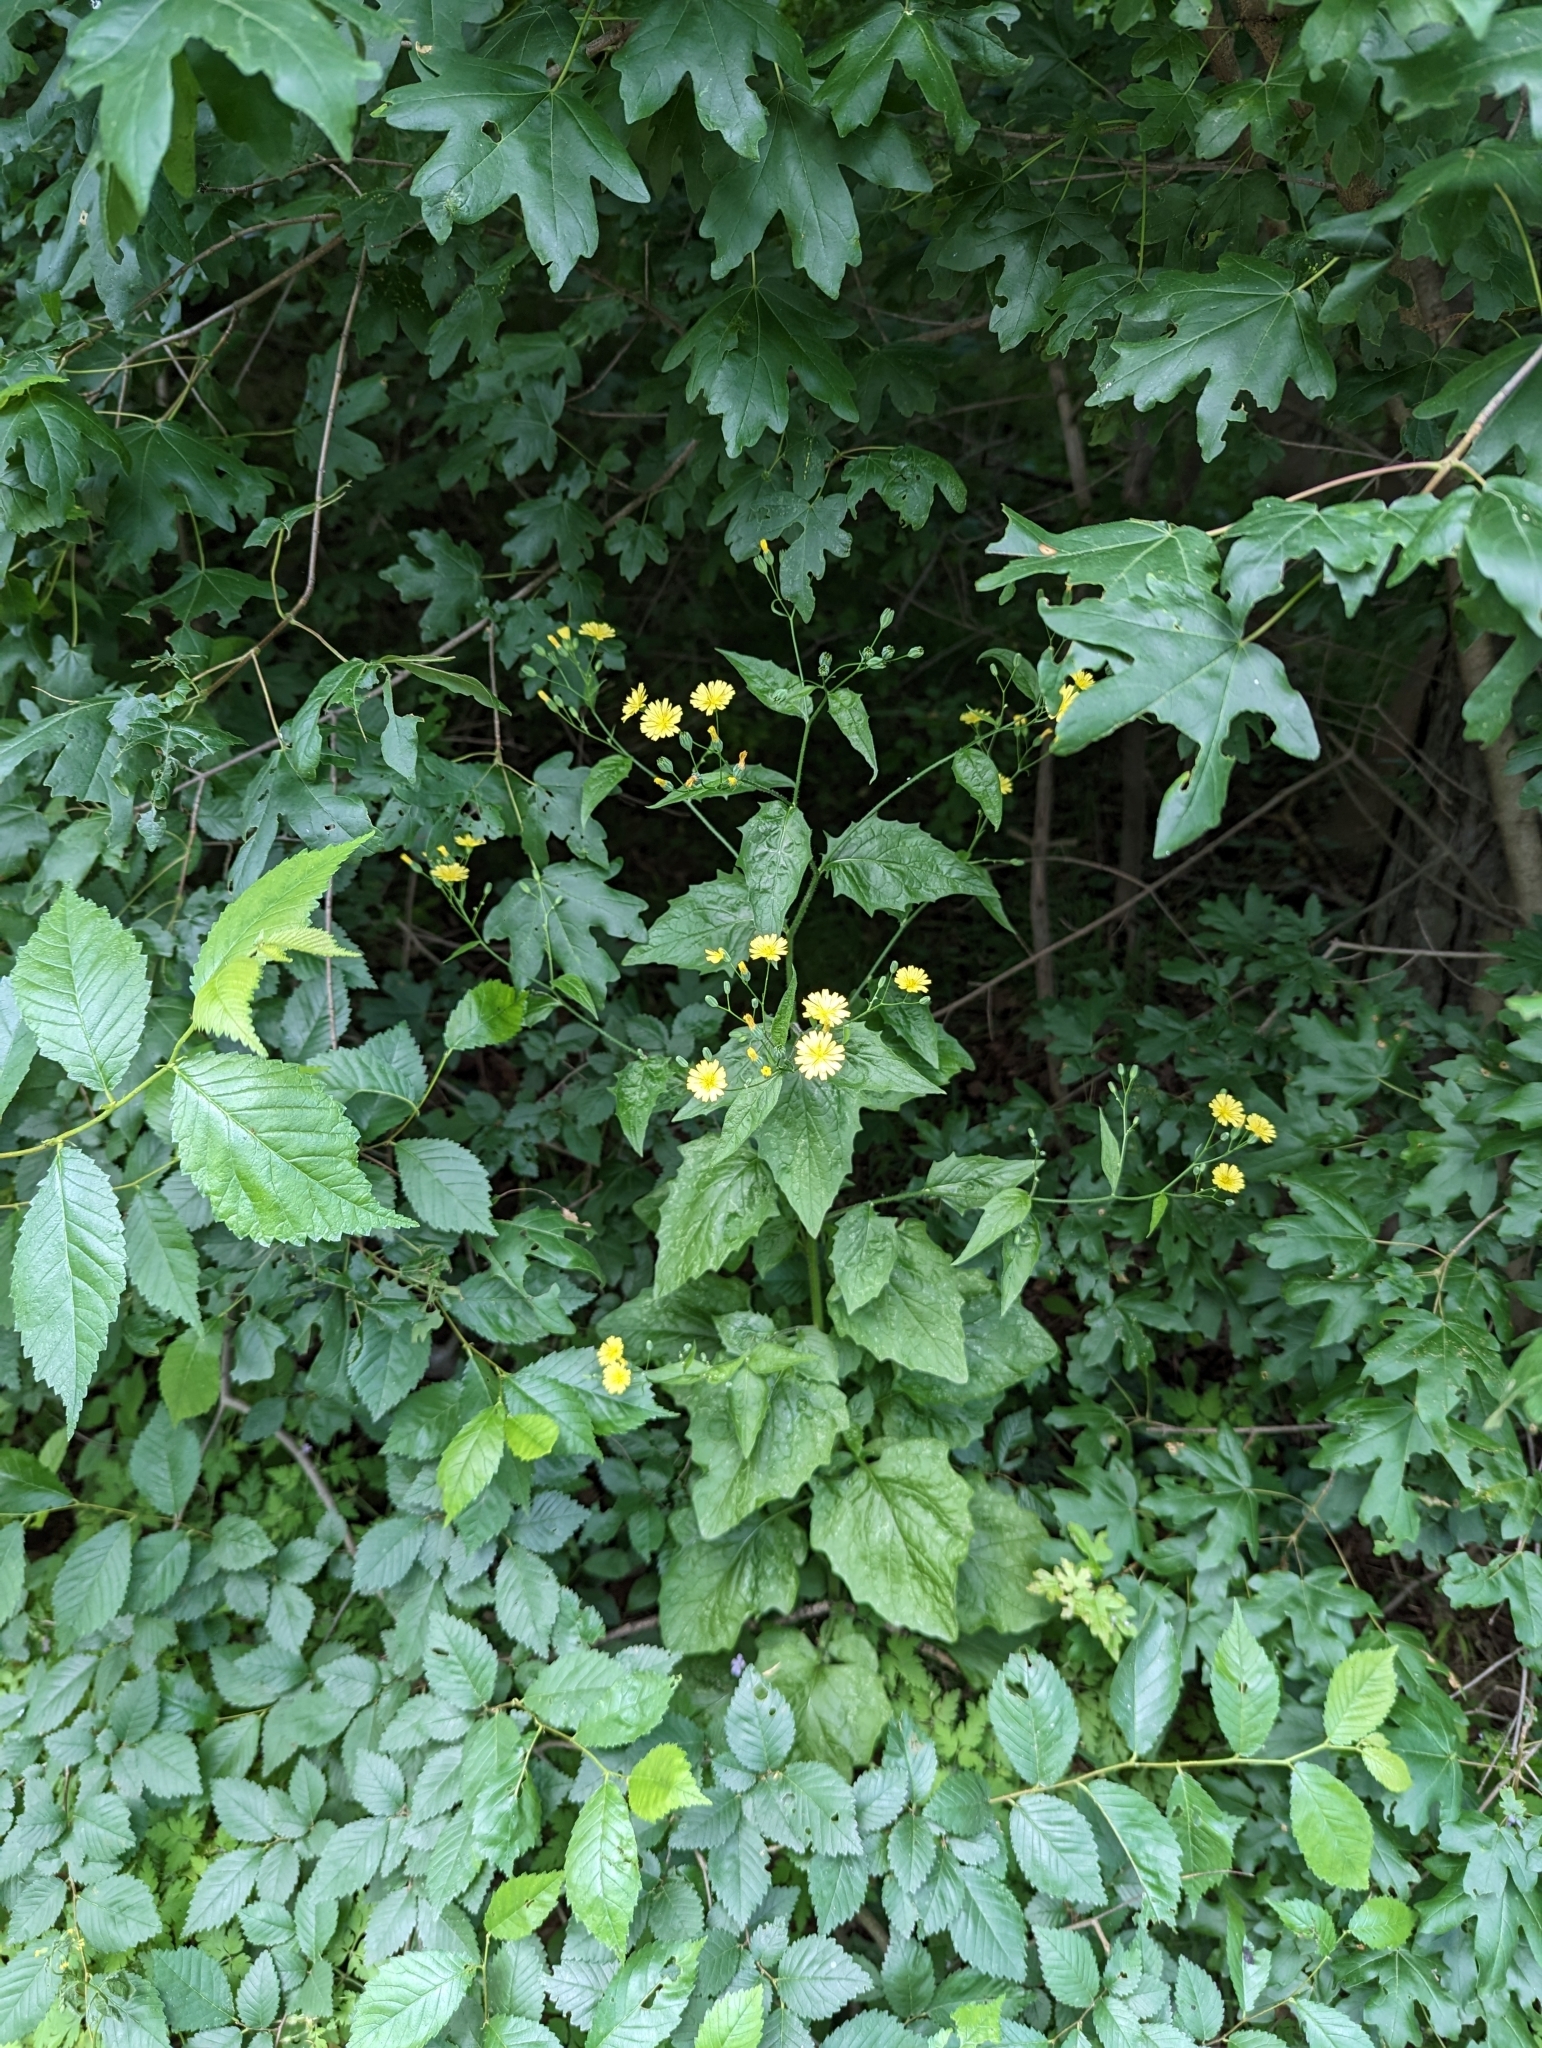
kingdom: Plantae
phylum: Tracheophyta
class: Magnoliopsida
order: Asterales
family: Asteraceae
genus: Lapsana
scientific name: Lapsana communis
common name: Nipplewort
